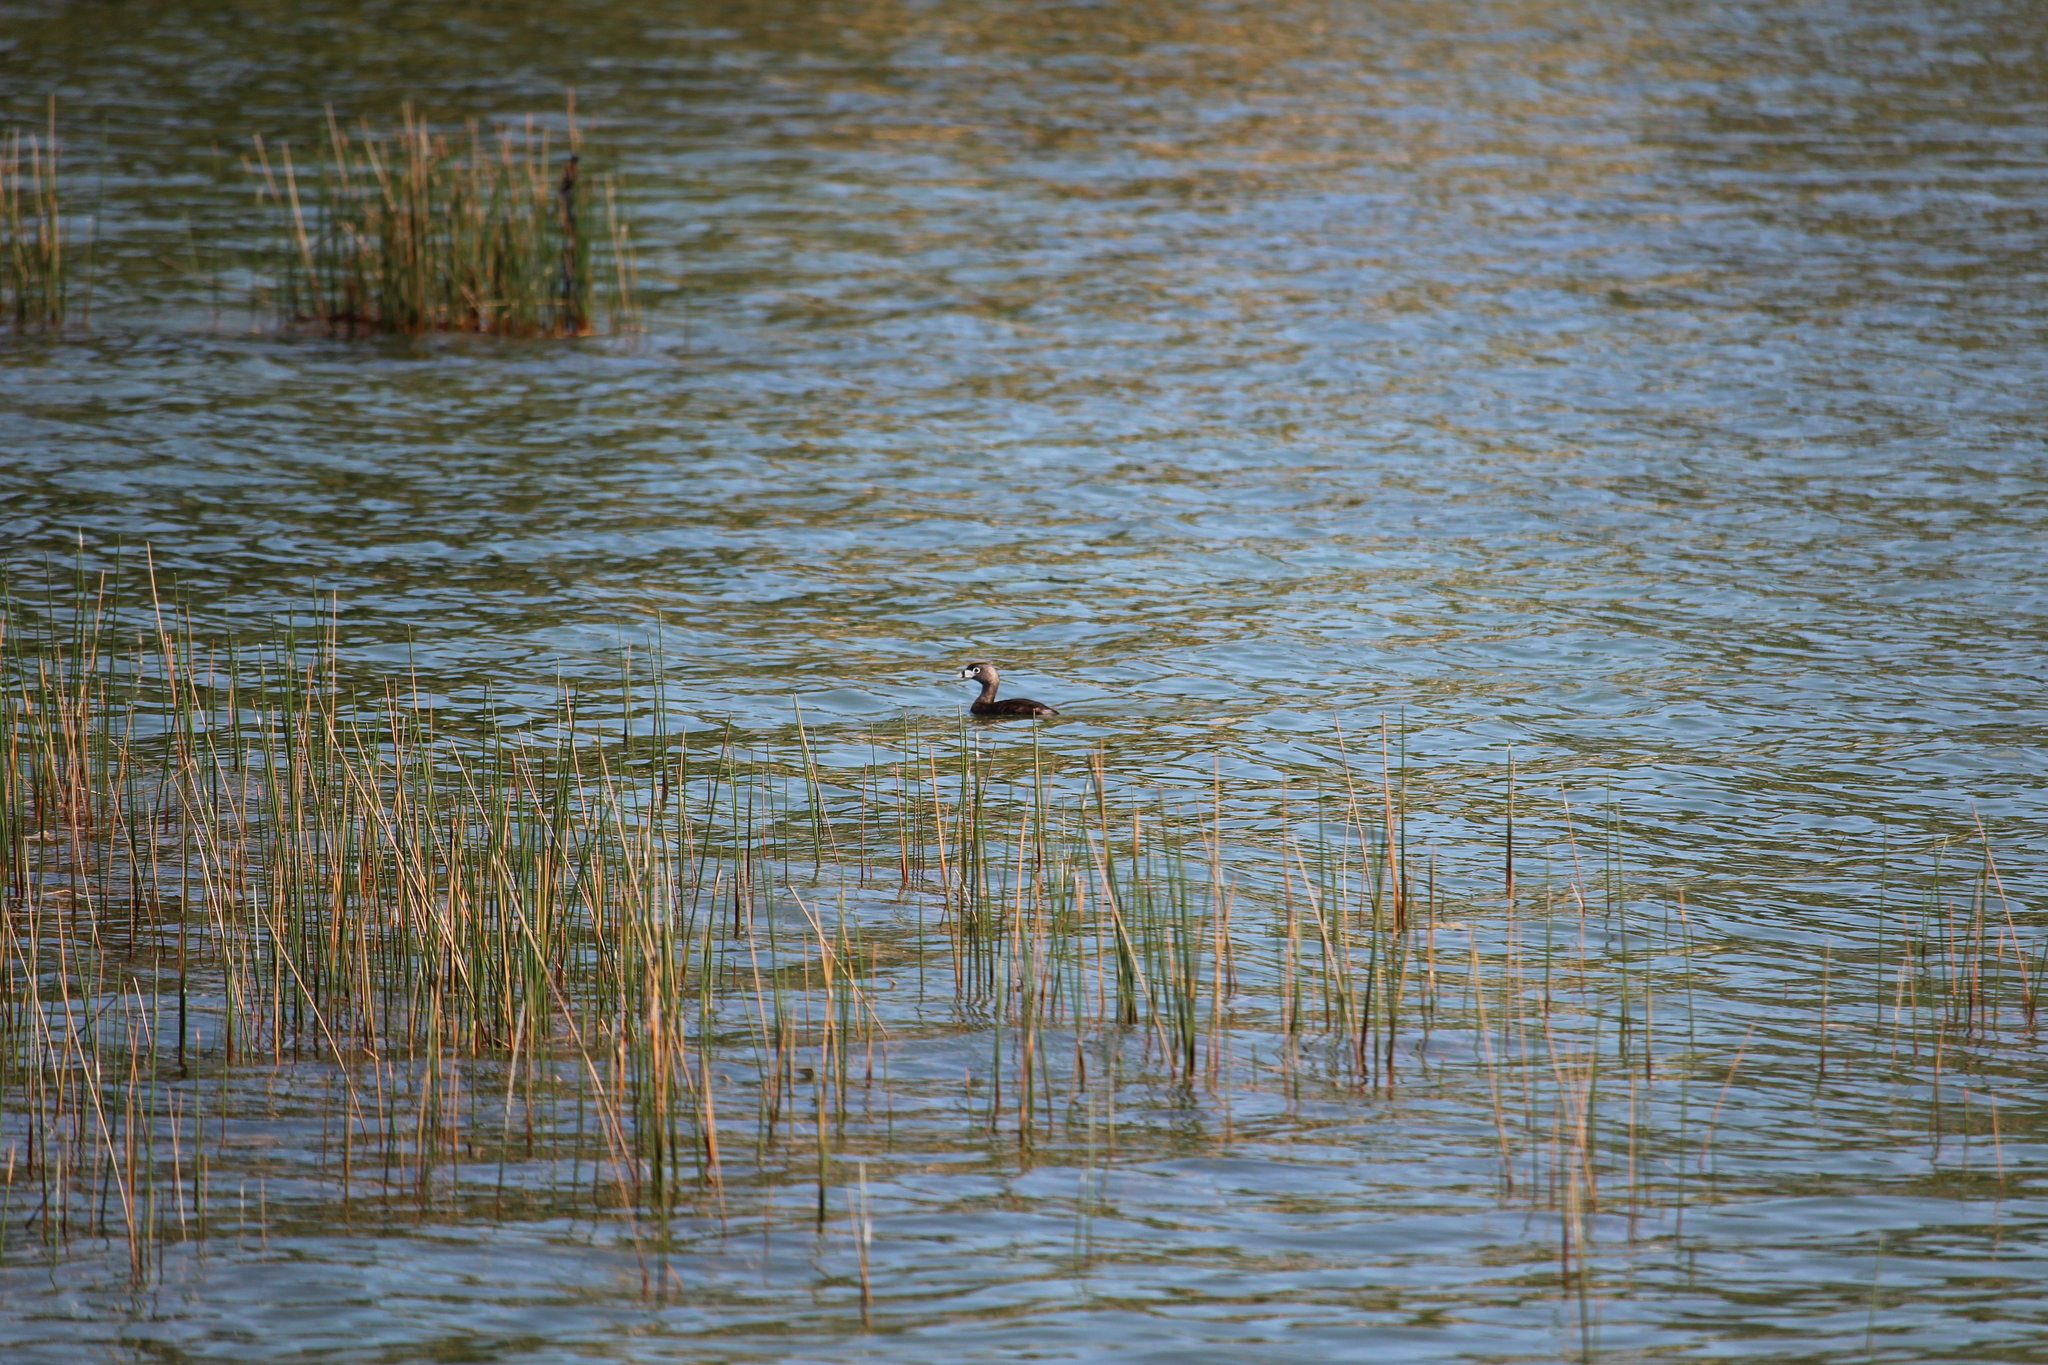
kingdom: Animalia
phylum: Chordata
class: Aves
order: Podicipediformes
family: Podicipedidae
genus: Podilymbus
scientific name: Podilymbus podiceps
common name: Pied-billed grebe
